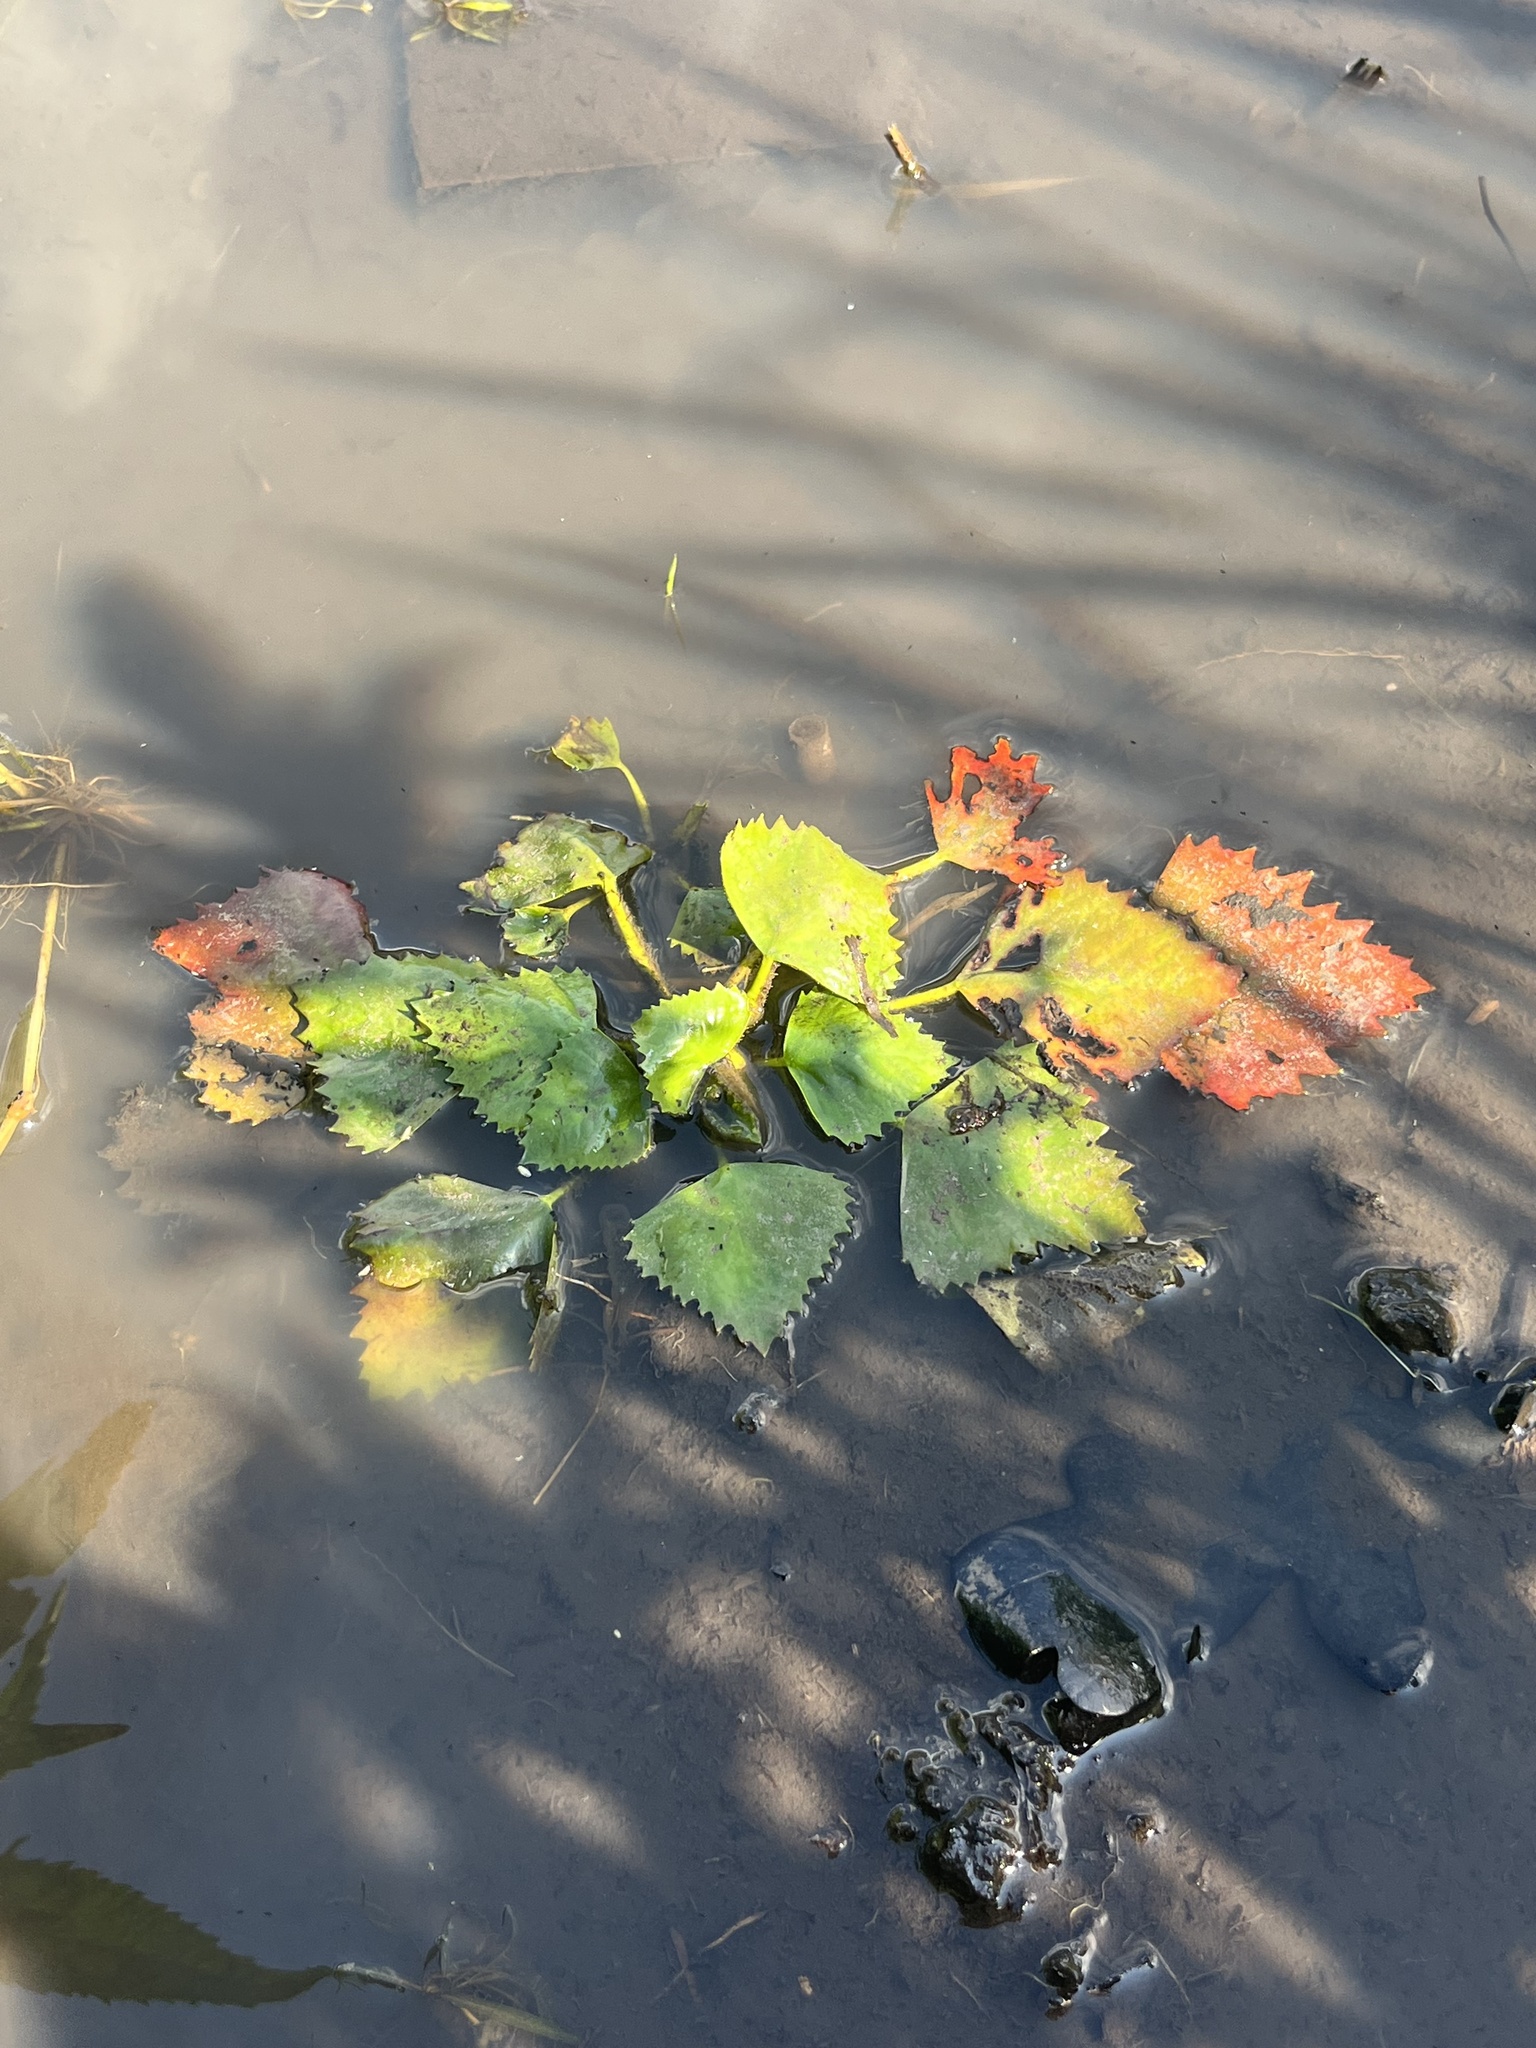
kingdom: Plantae
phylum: Tracheophyta
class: Magnoliopsida
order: Myrtales
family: Lythraceae
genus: Trapa
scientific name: Trapa natans
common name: Water chestnut
